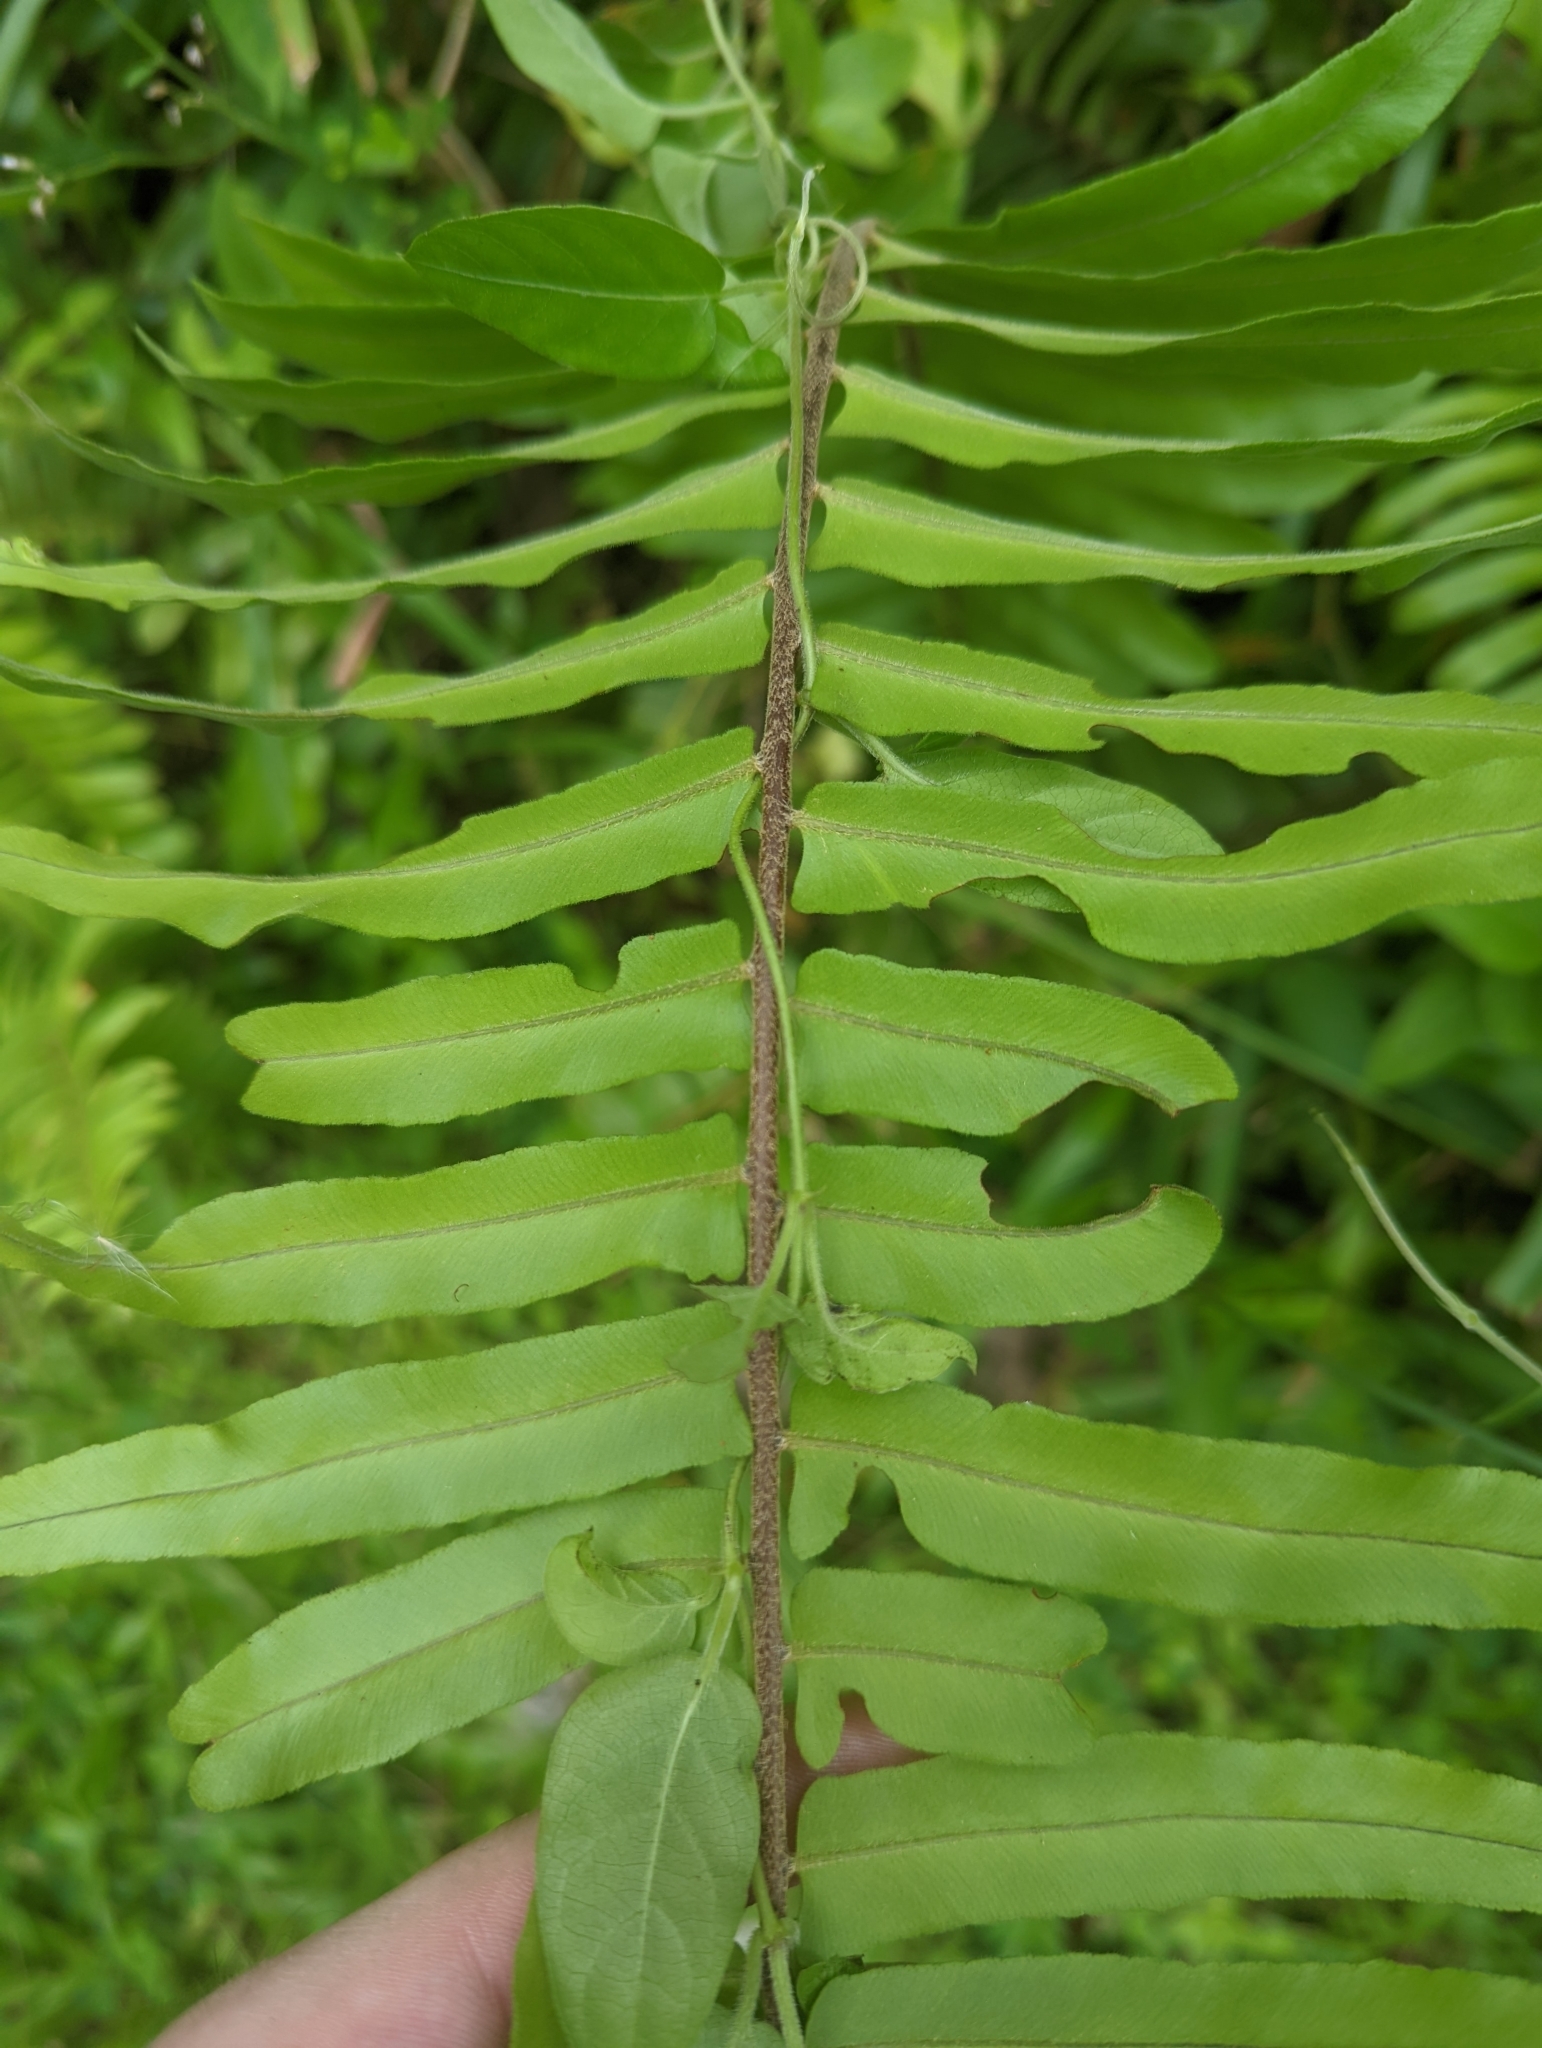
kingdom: Plantae
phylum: Tracheophyta
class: Polypodiopsida
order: Polypodiales
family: Nephrolepidaceae
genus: Nephrolepis
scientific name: Nephrolepis biserrata
